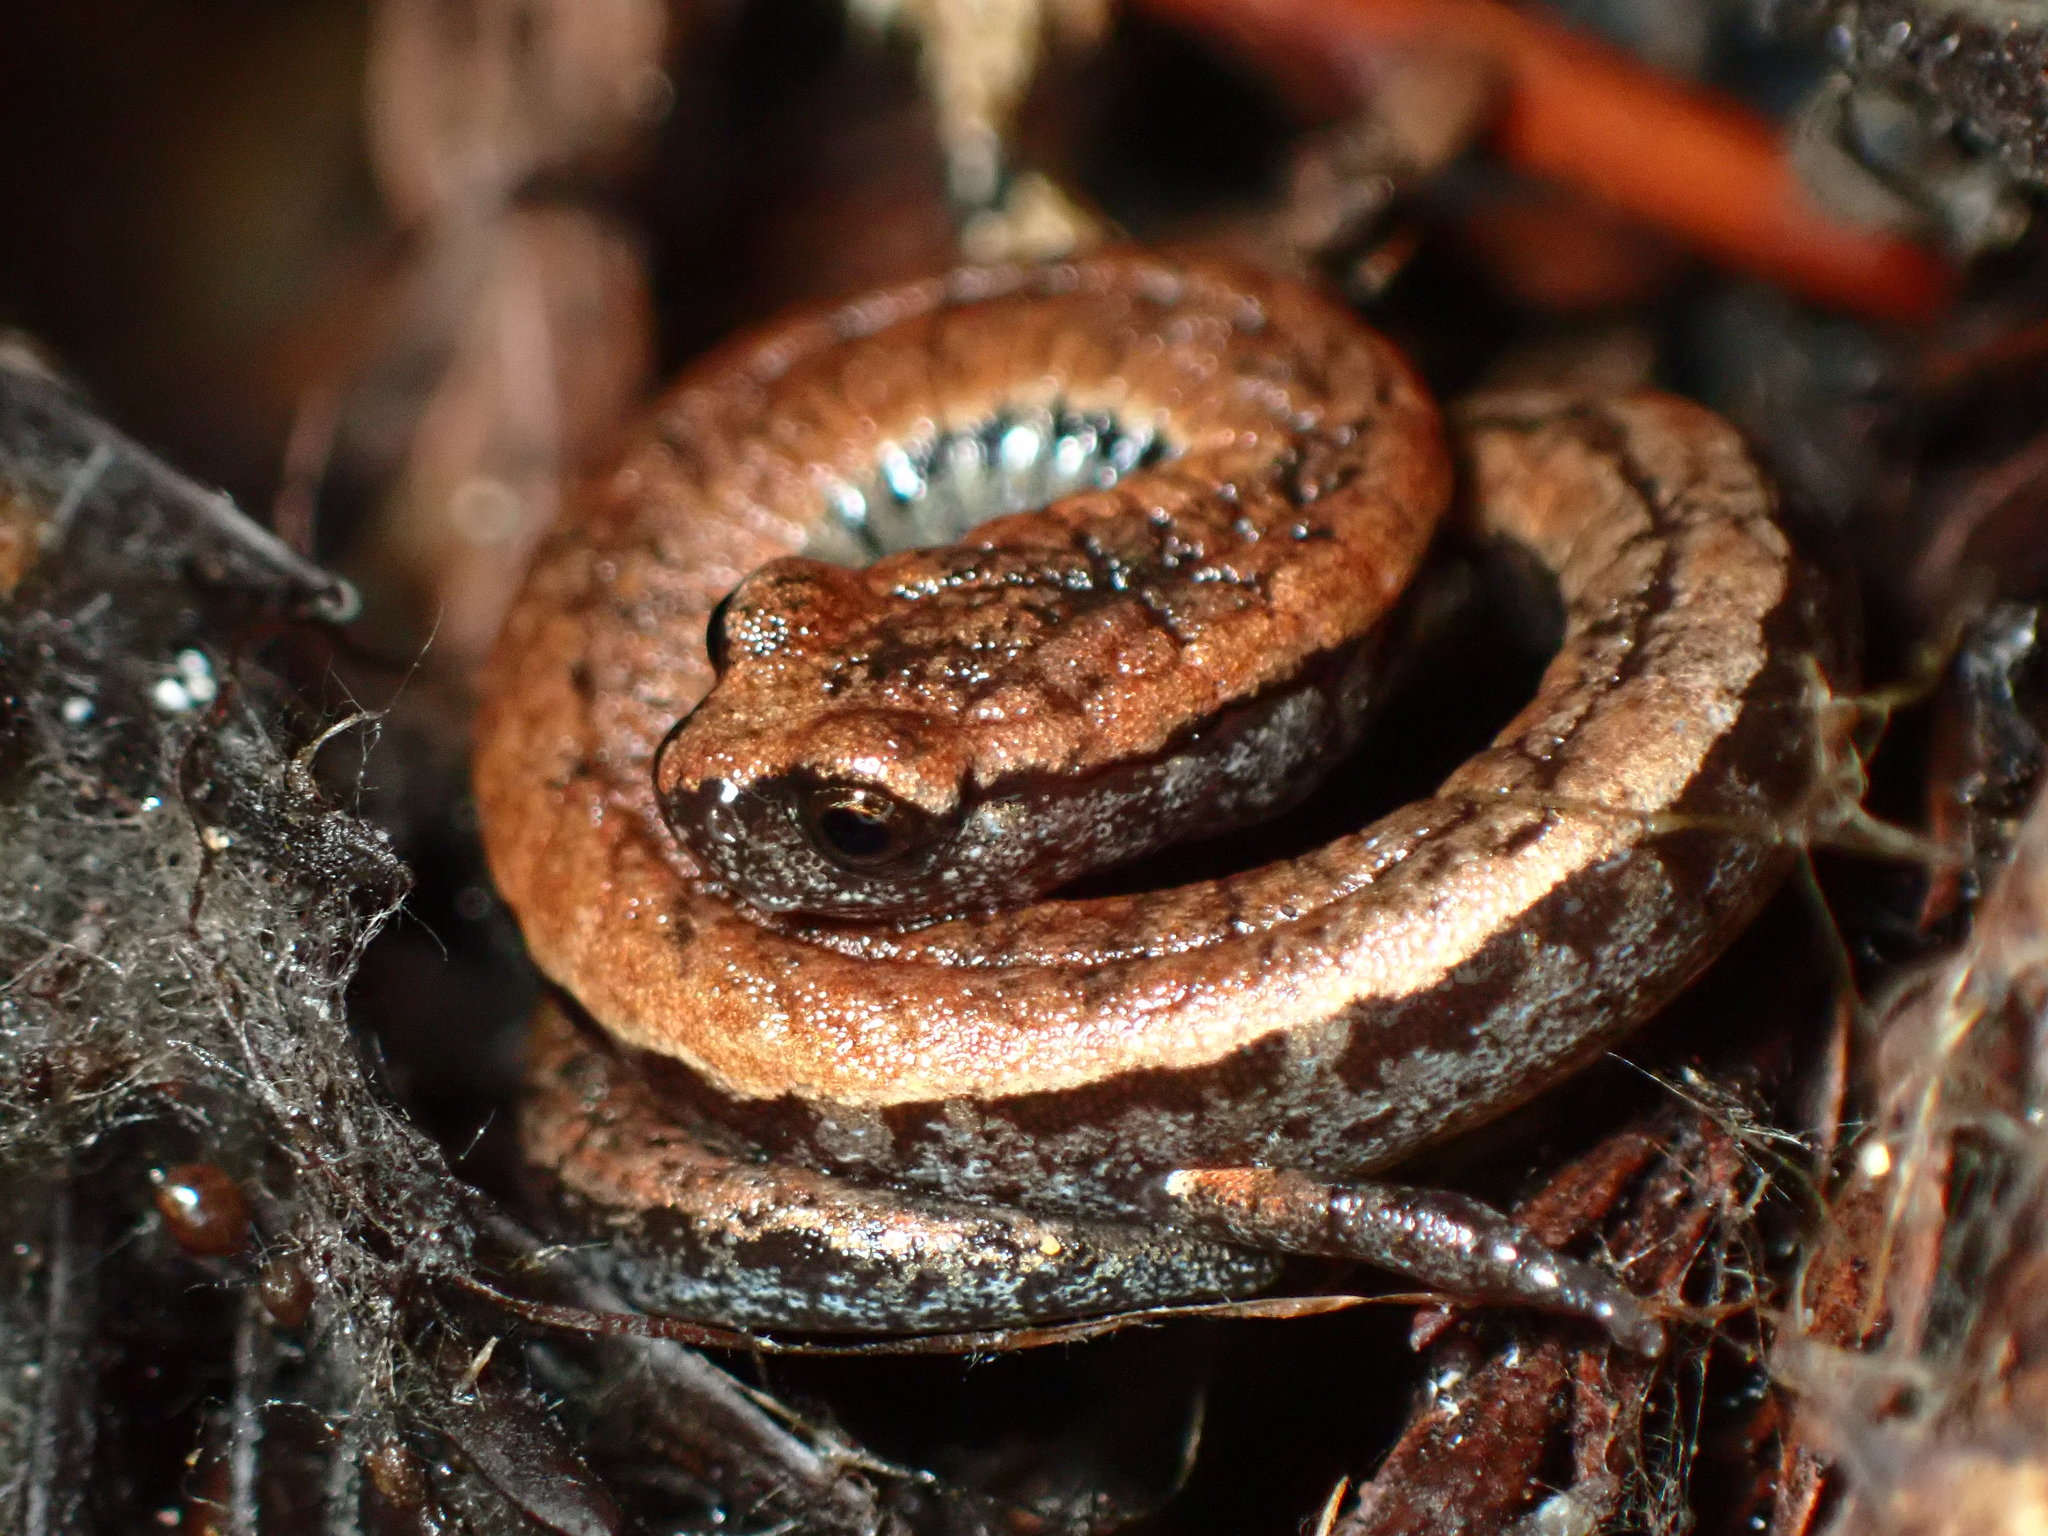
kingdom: Animalia
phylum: Chordata
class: Amphibia
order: Caudata
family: Plethodontidae
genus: Batrachoseps
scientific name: Batrachoseps attenuatus
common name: California slender salamander
